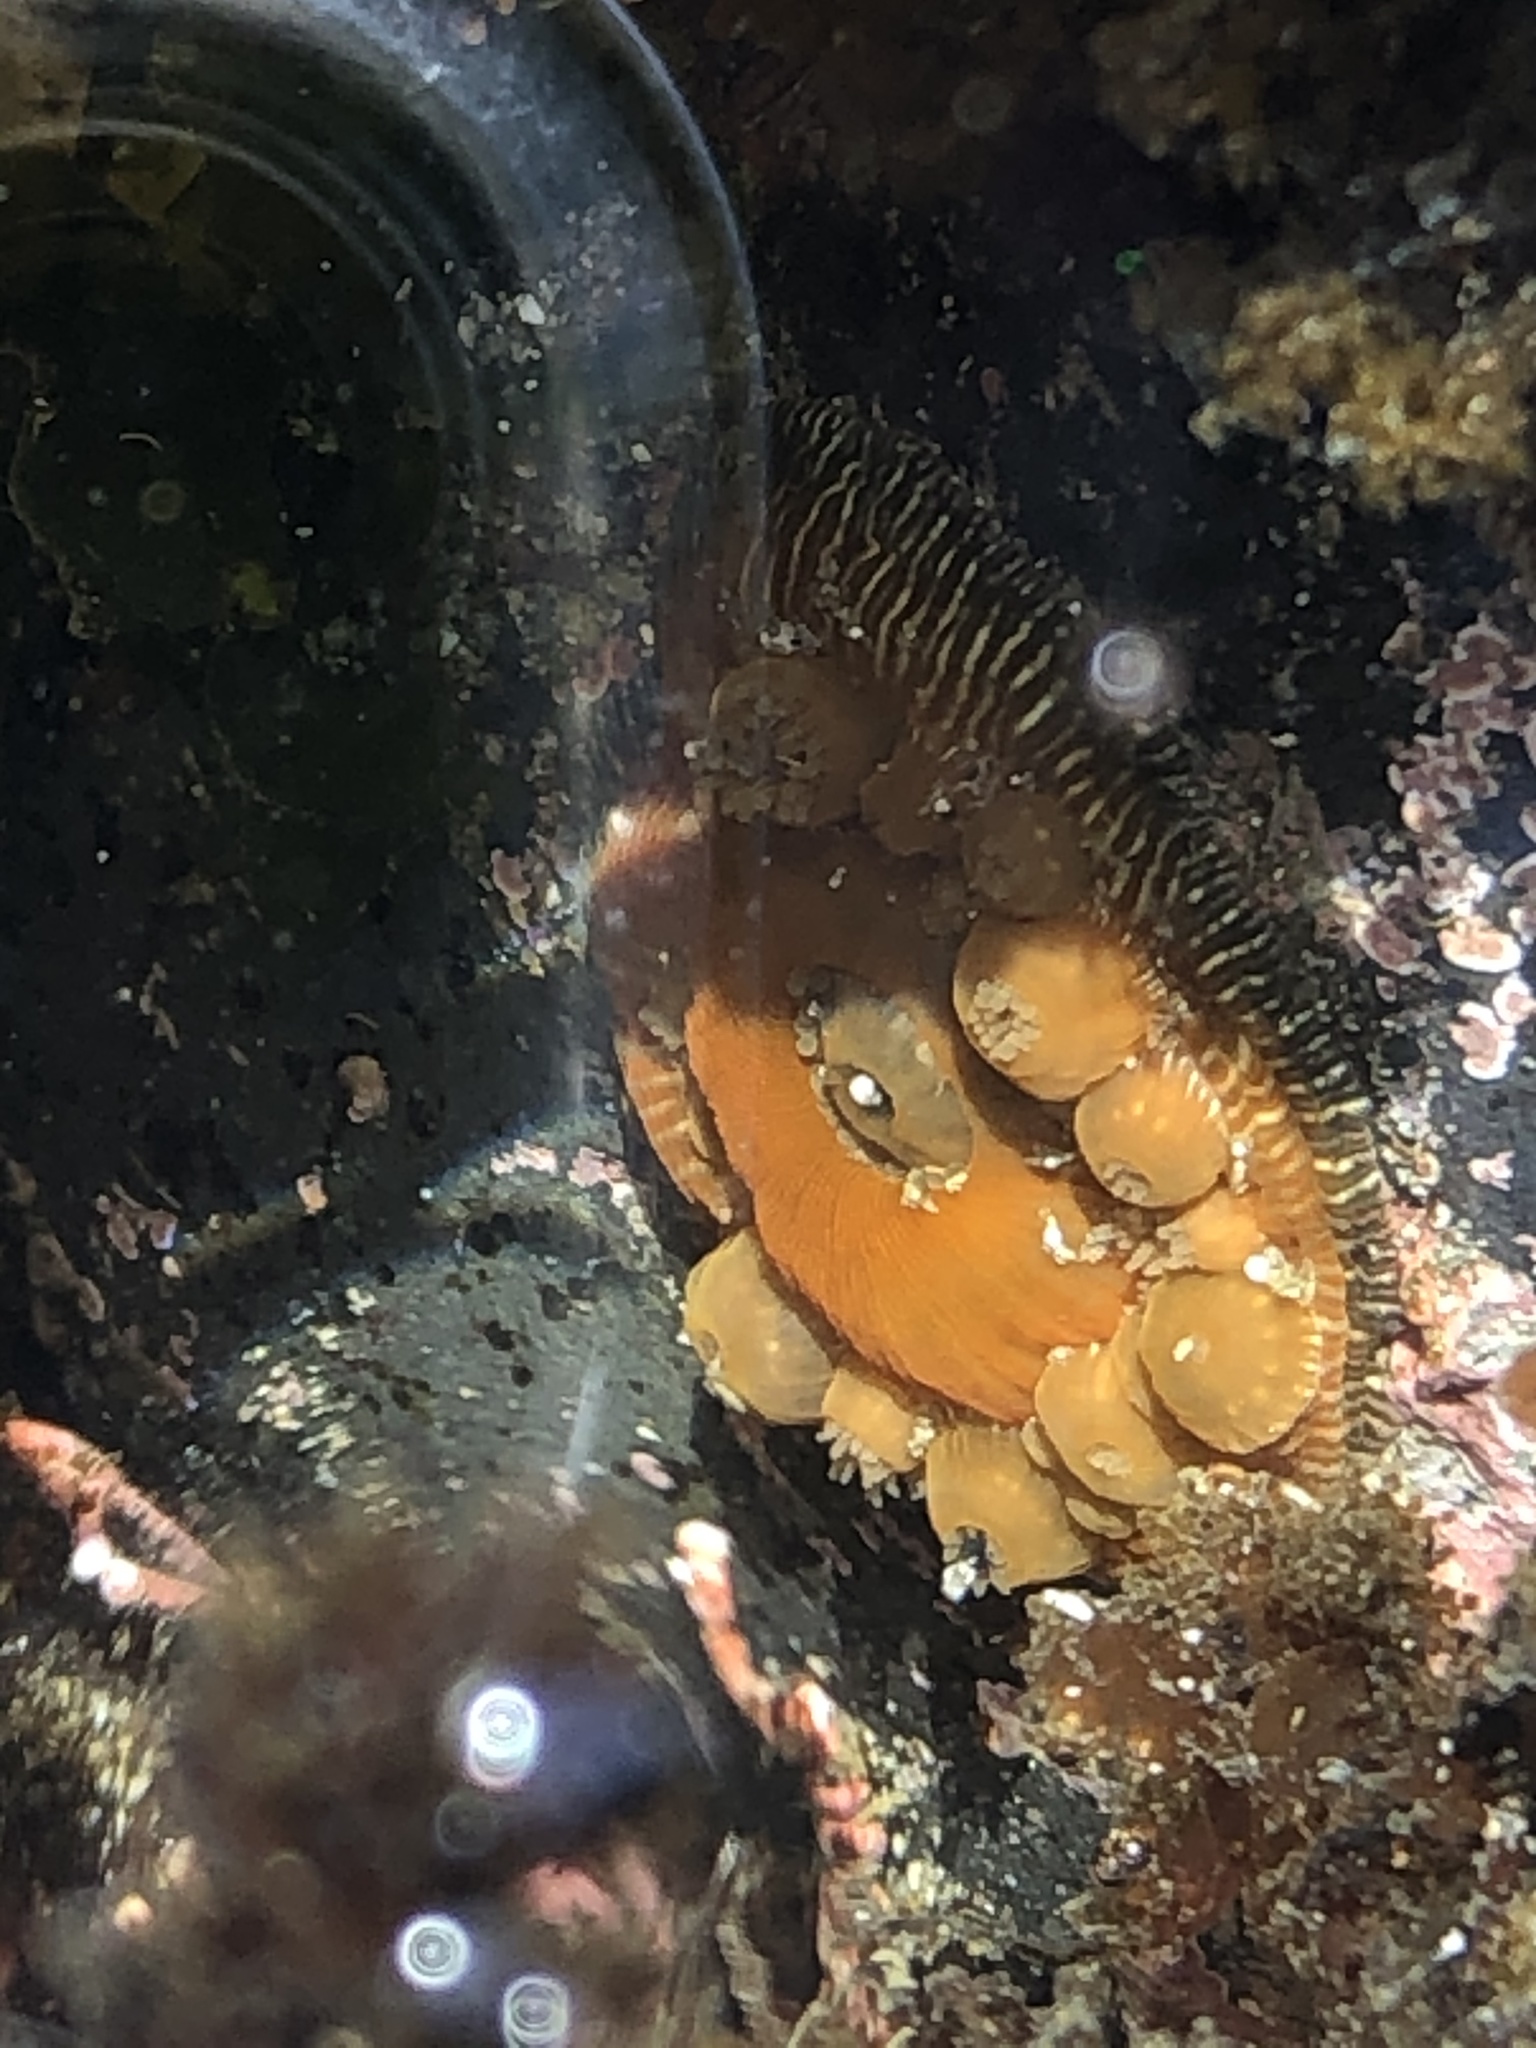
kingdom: Animalia
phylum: Cnidaria
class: Anthozoa
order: Actiniaria
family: Actiniidae
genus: Epiactis
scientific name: Epiactis prolifera
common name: Brooding anemone
